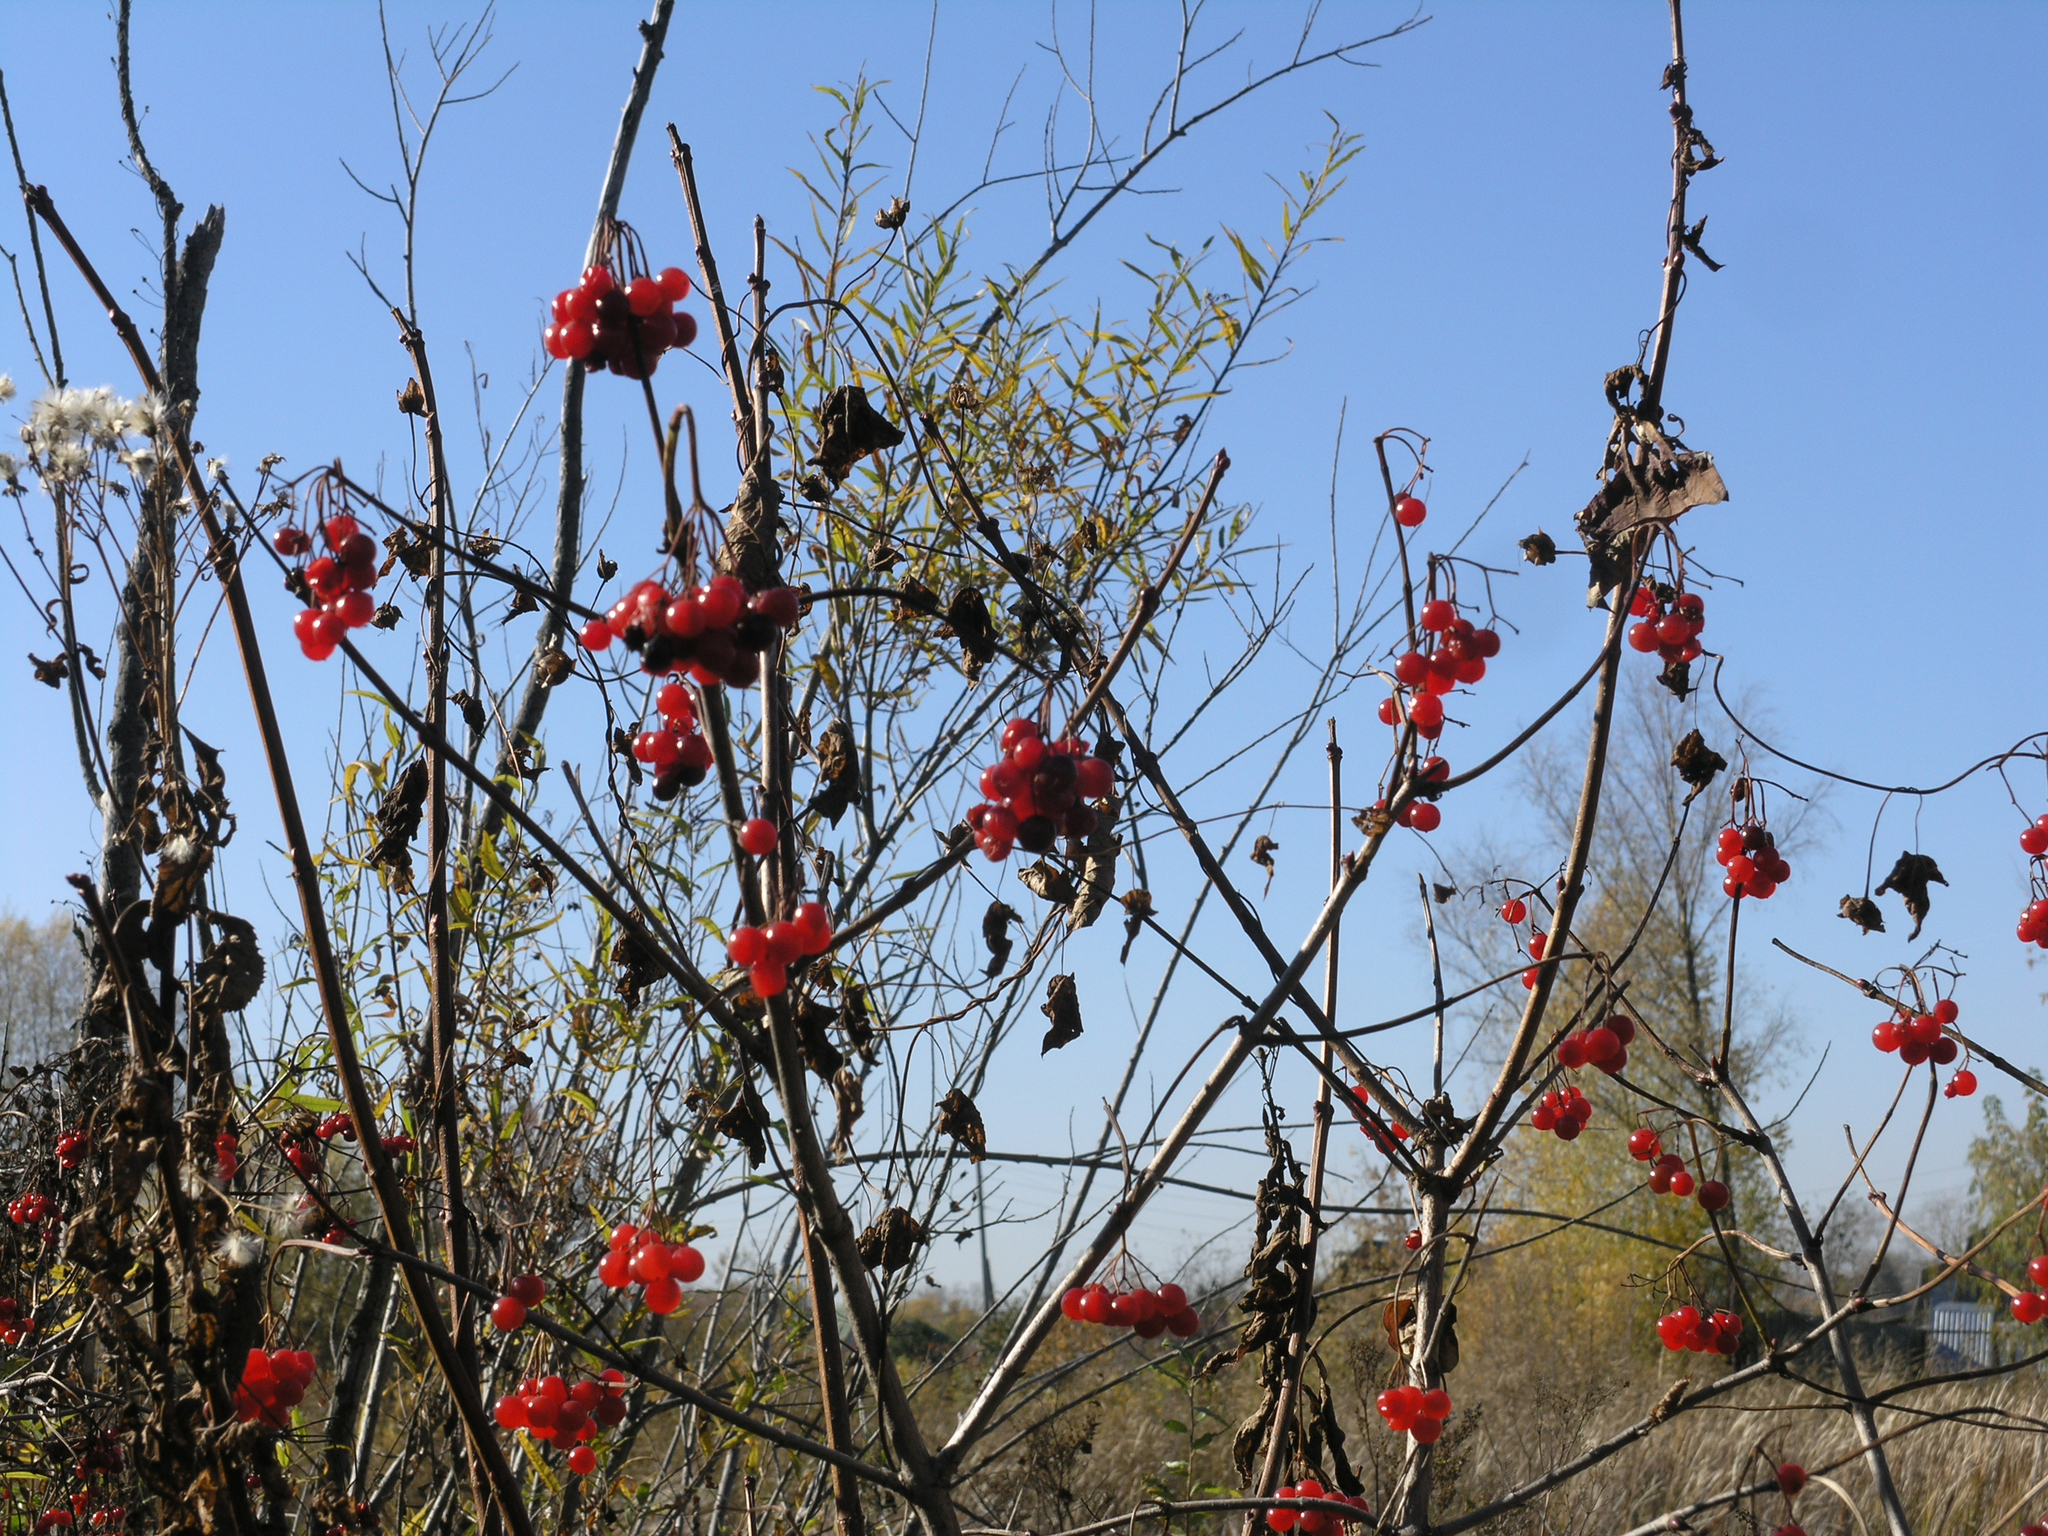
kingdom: Plantae
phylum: Tracheophyta
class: Magnoliopsida
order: Dipsacales
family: Viburnaceae
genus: Viburnum
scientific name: Viburnum opulus
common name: Guelder-rose
